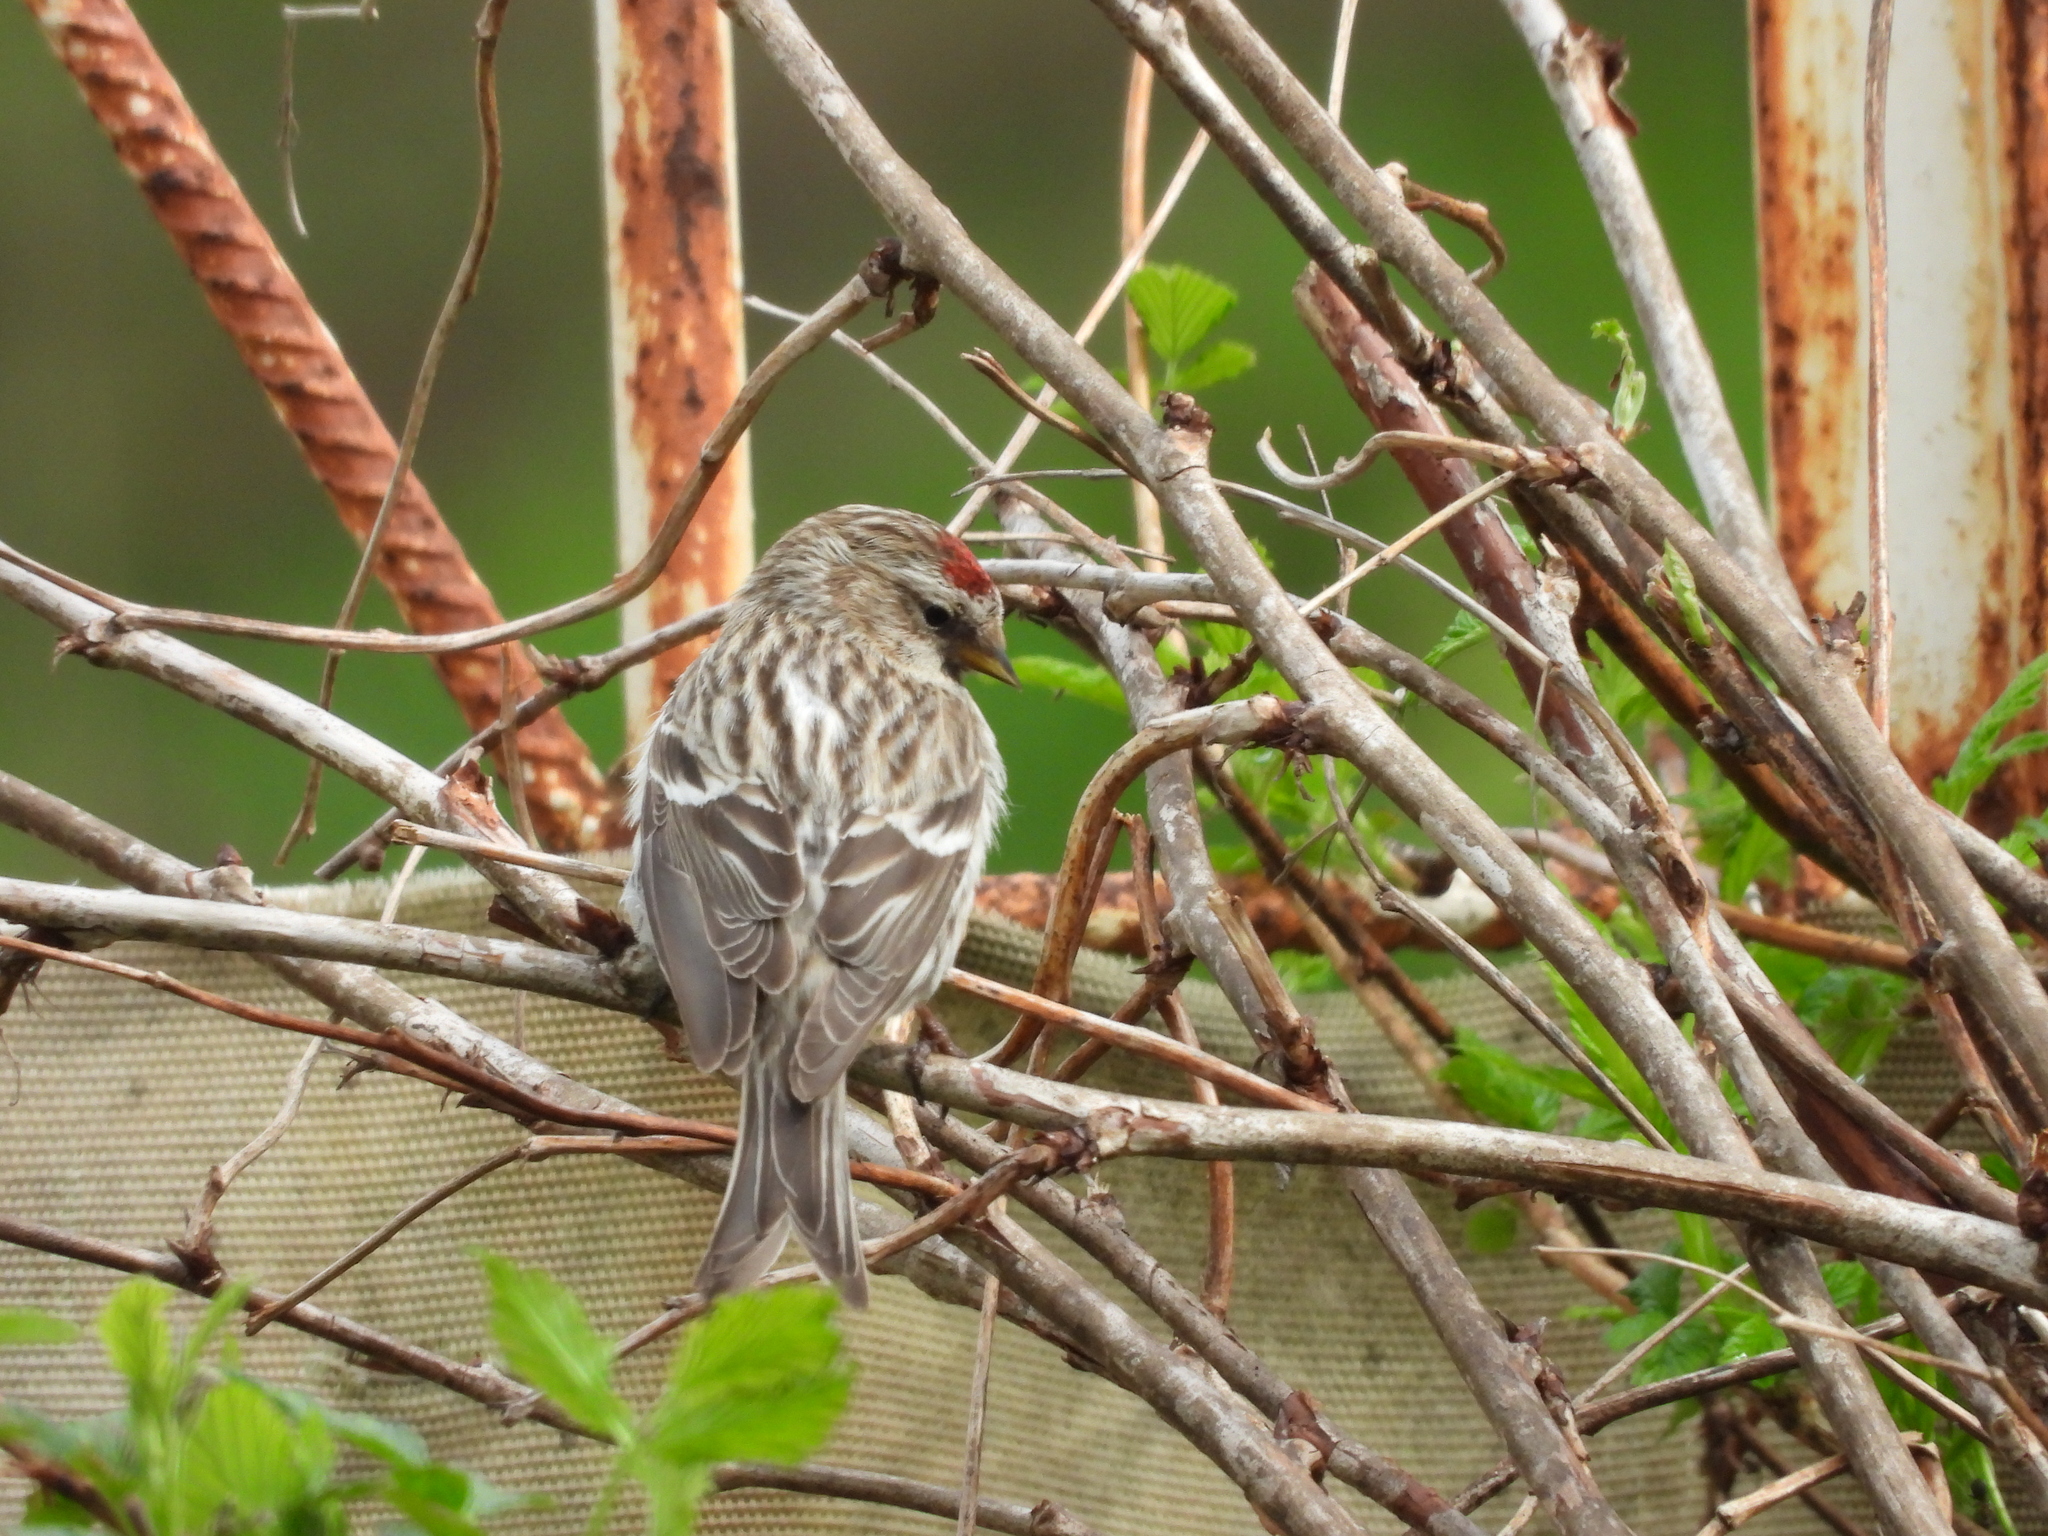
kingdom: Animalia
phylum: Chordata
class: Aves
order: Passeriformes
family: Fringillidae
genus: Acanthis
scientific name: Acanthis flammea
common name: Common redpoll
